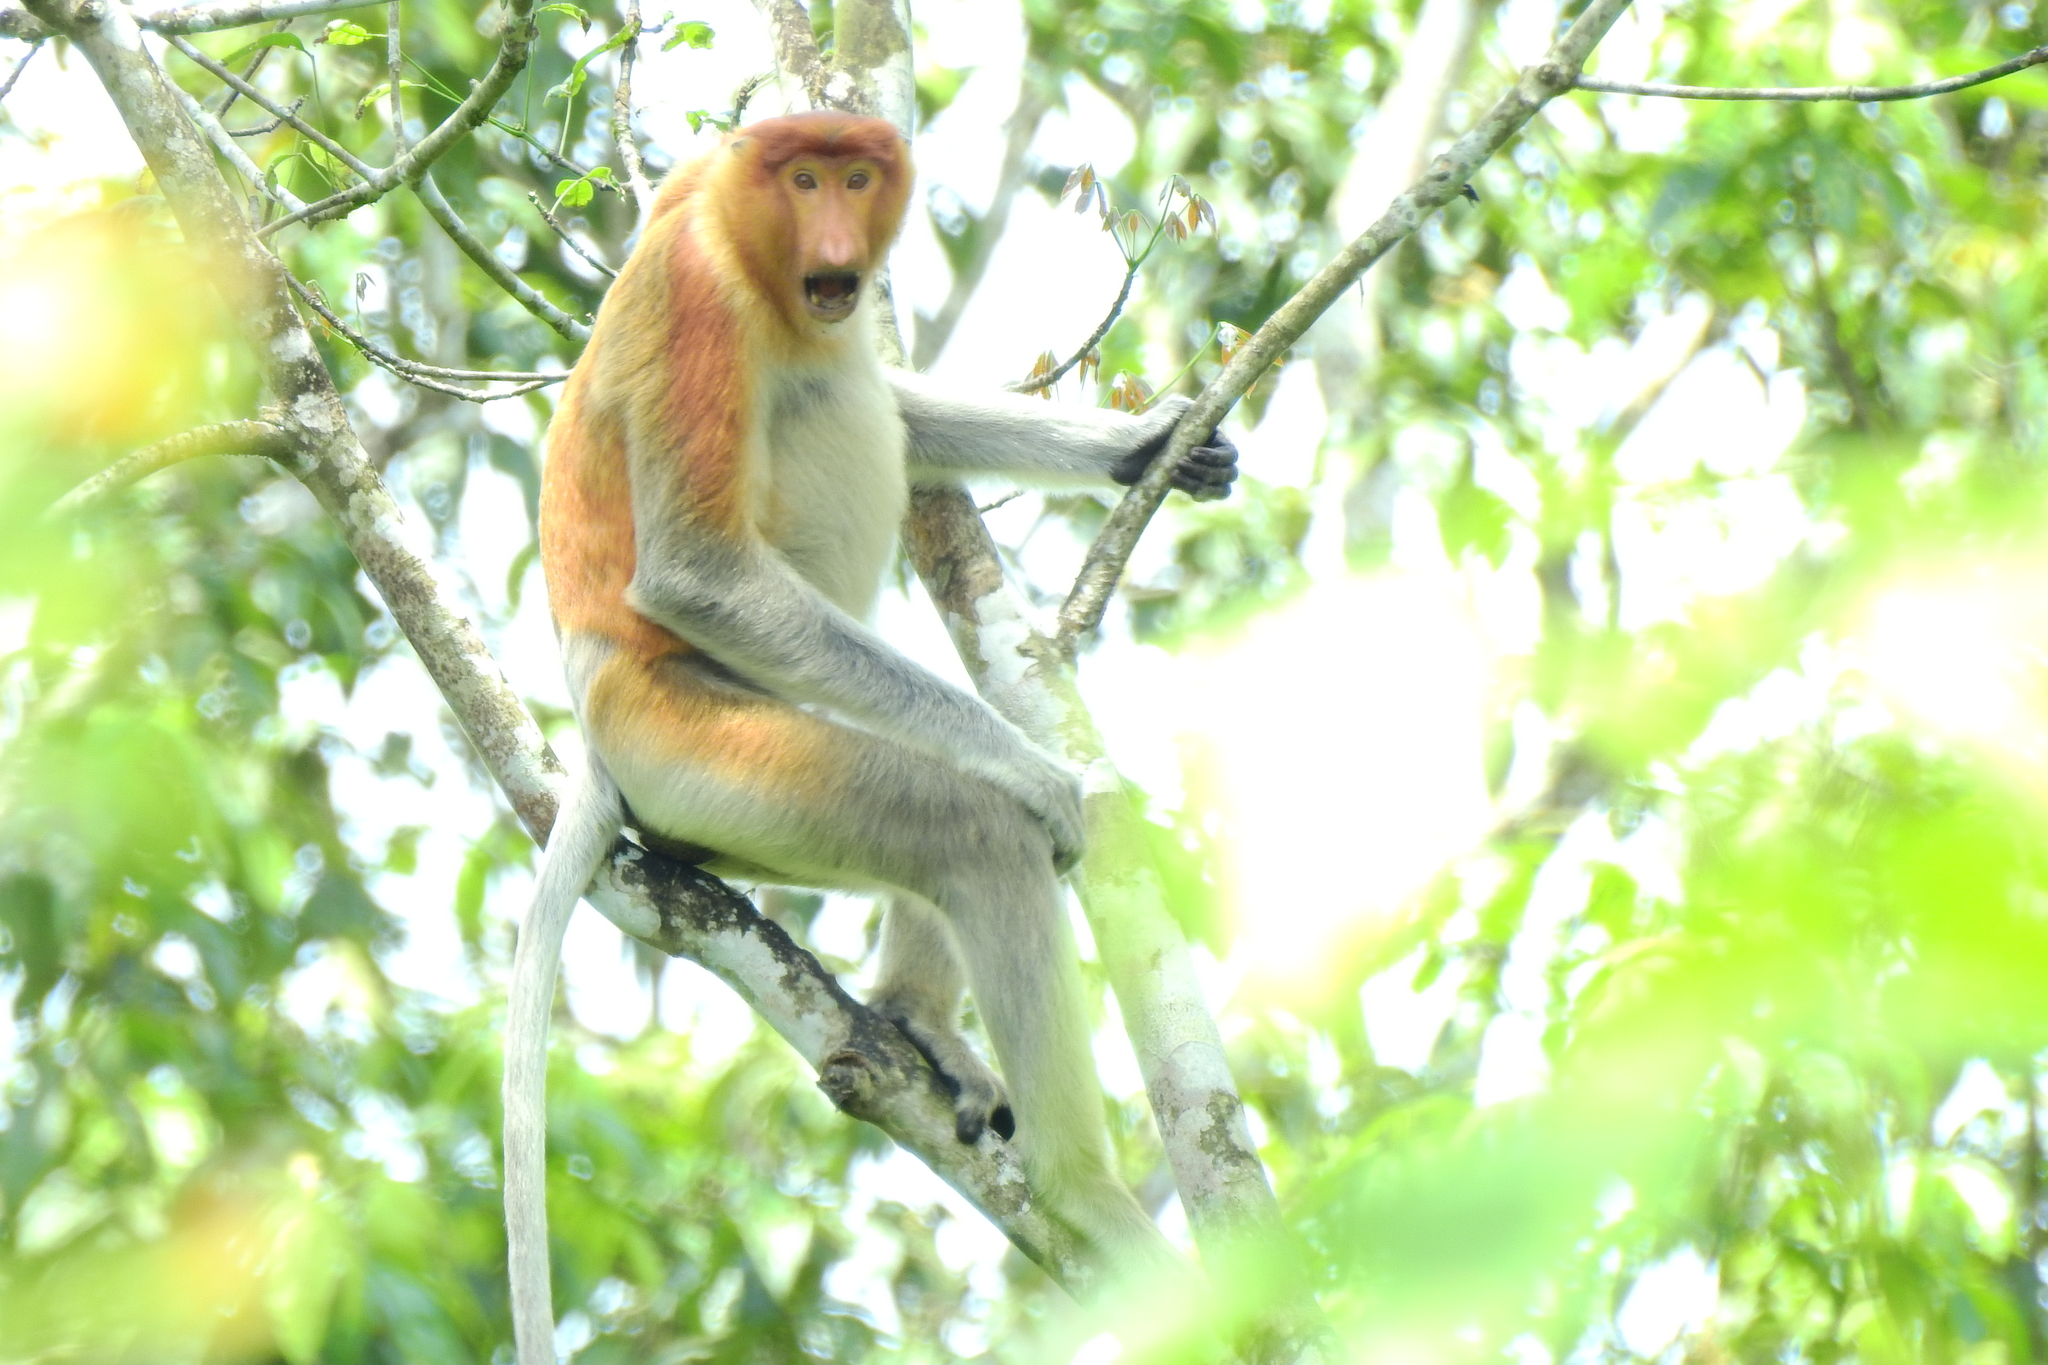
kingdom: Animalia
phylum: Chordata
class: Mammalia
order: Primates
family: Cercopithecidae
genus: Nasalis
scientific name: Nasalis larvatus
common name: Proboscis monkey
